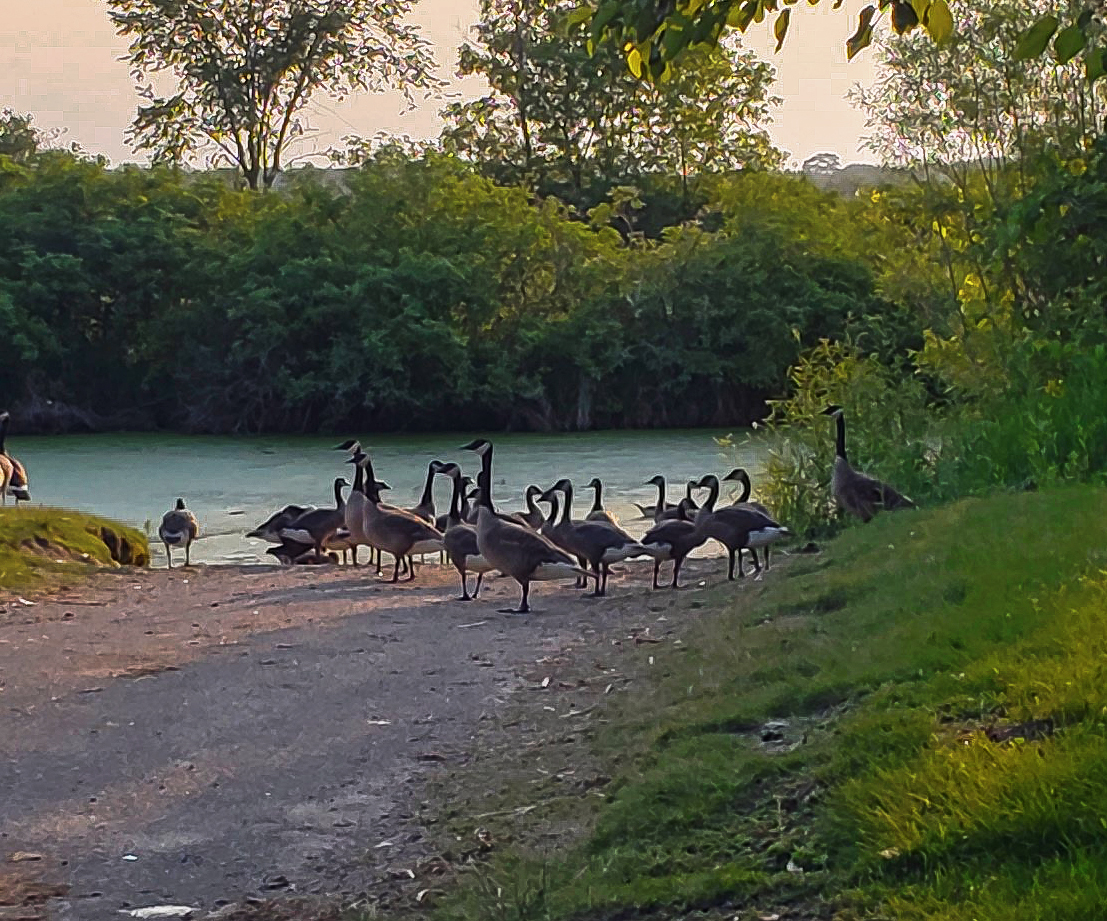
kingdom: Animalia
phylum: Chordata
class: Aves
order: Anseriformes
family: Anatidae
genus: Branta
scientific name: Branta canadensis
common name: Canada goose
